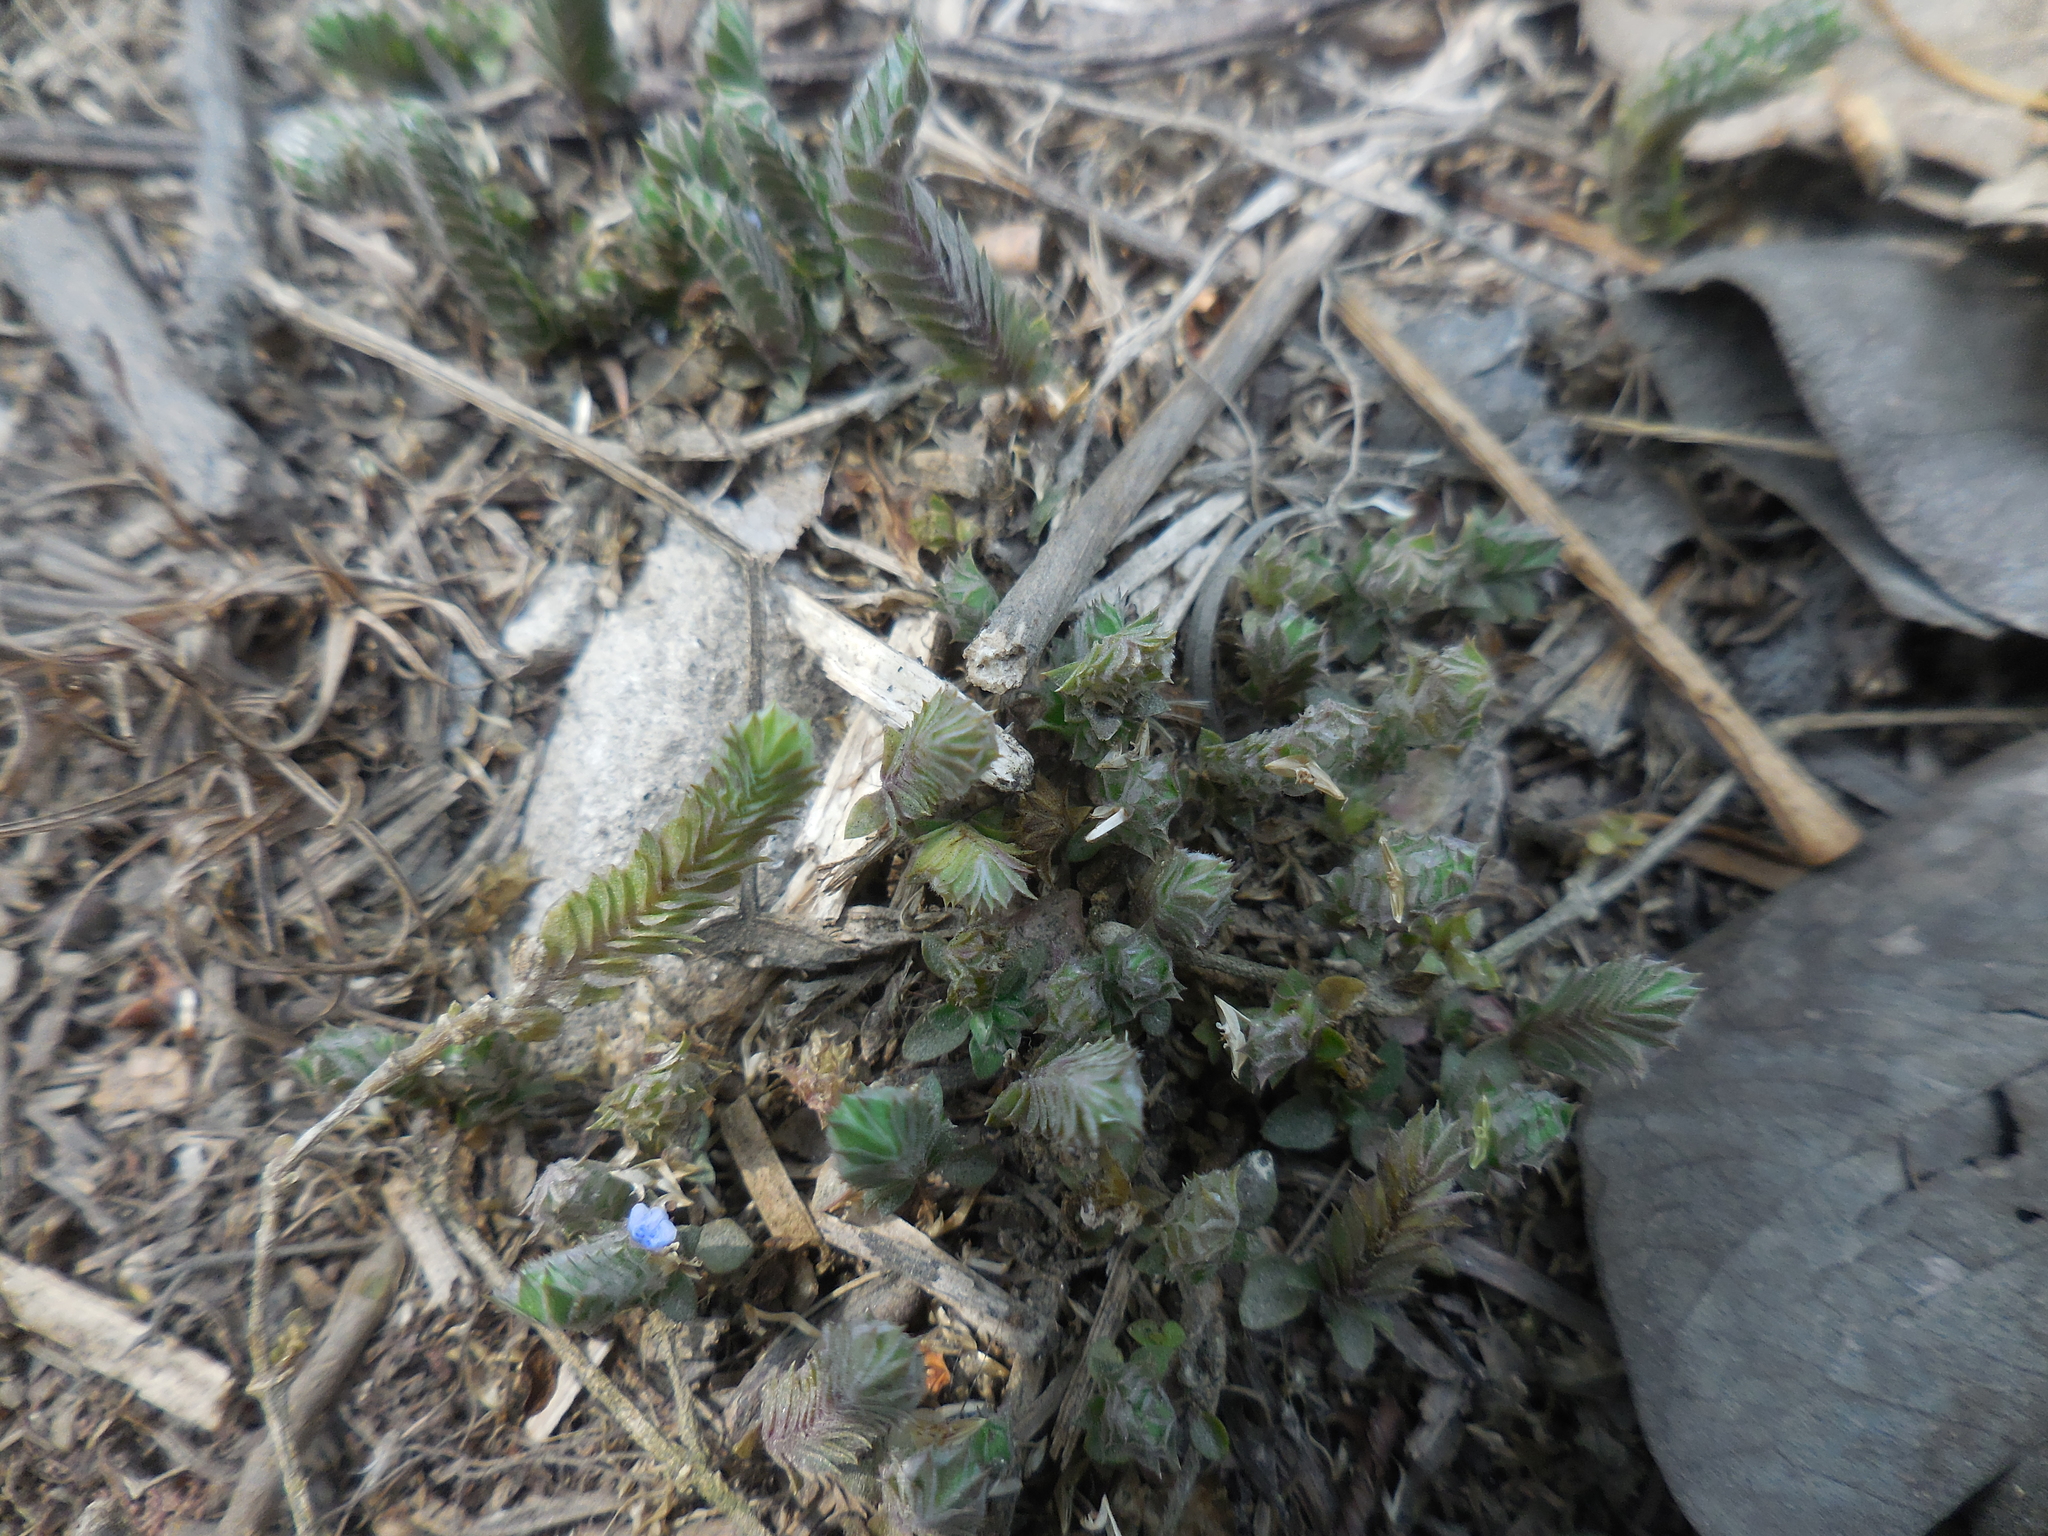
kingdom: Plantae
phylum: Tracheophyta
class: Magnoliopsida
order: Lamiales
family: Acanthaceae
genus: Rungia
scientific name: Rungia pectinata
